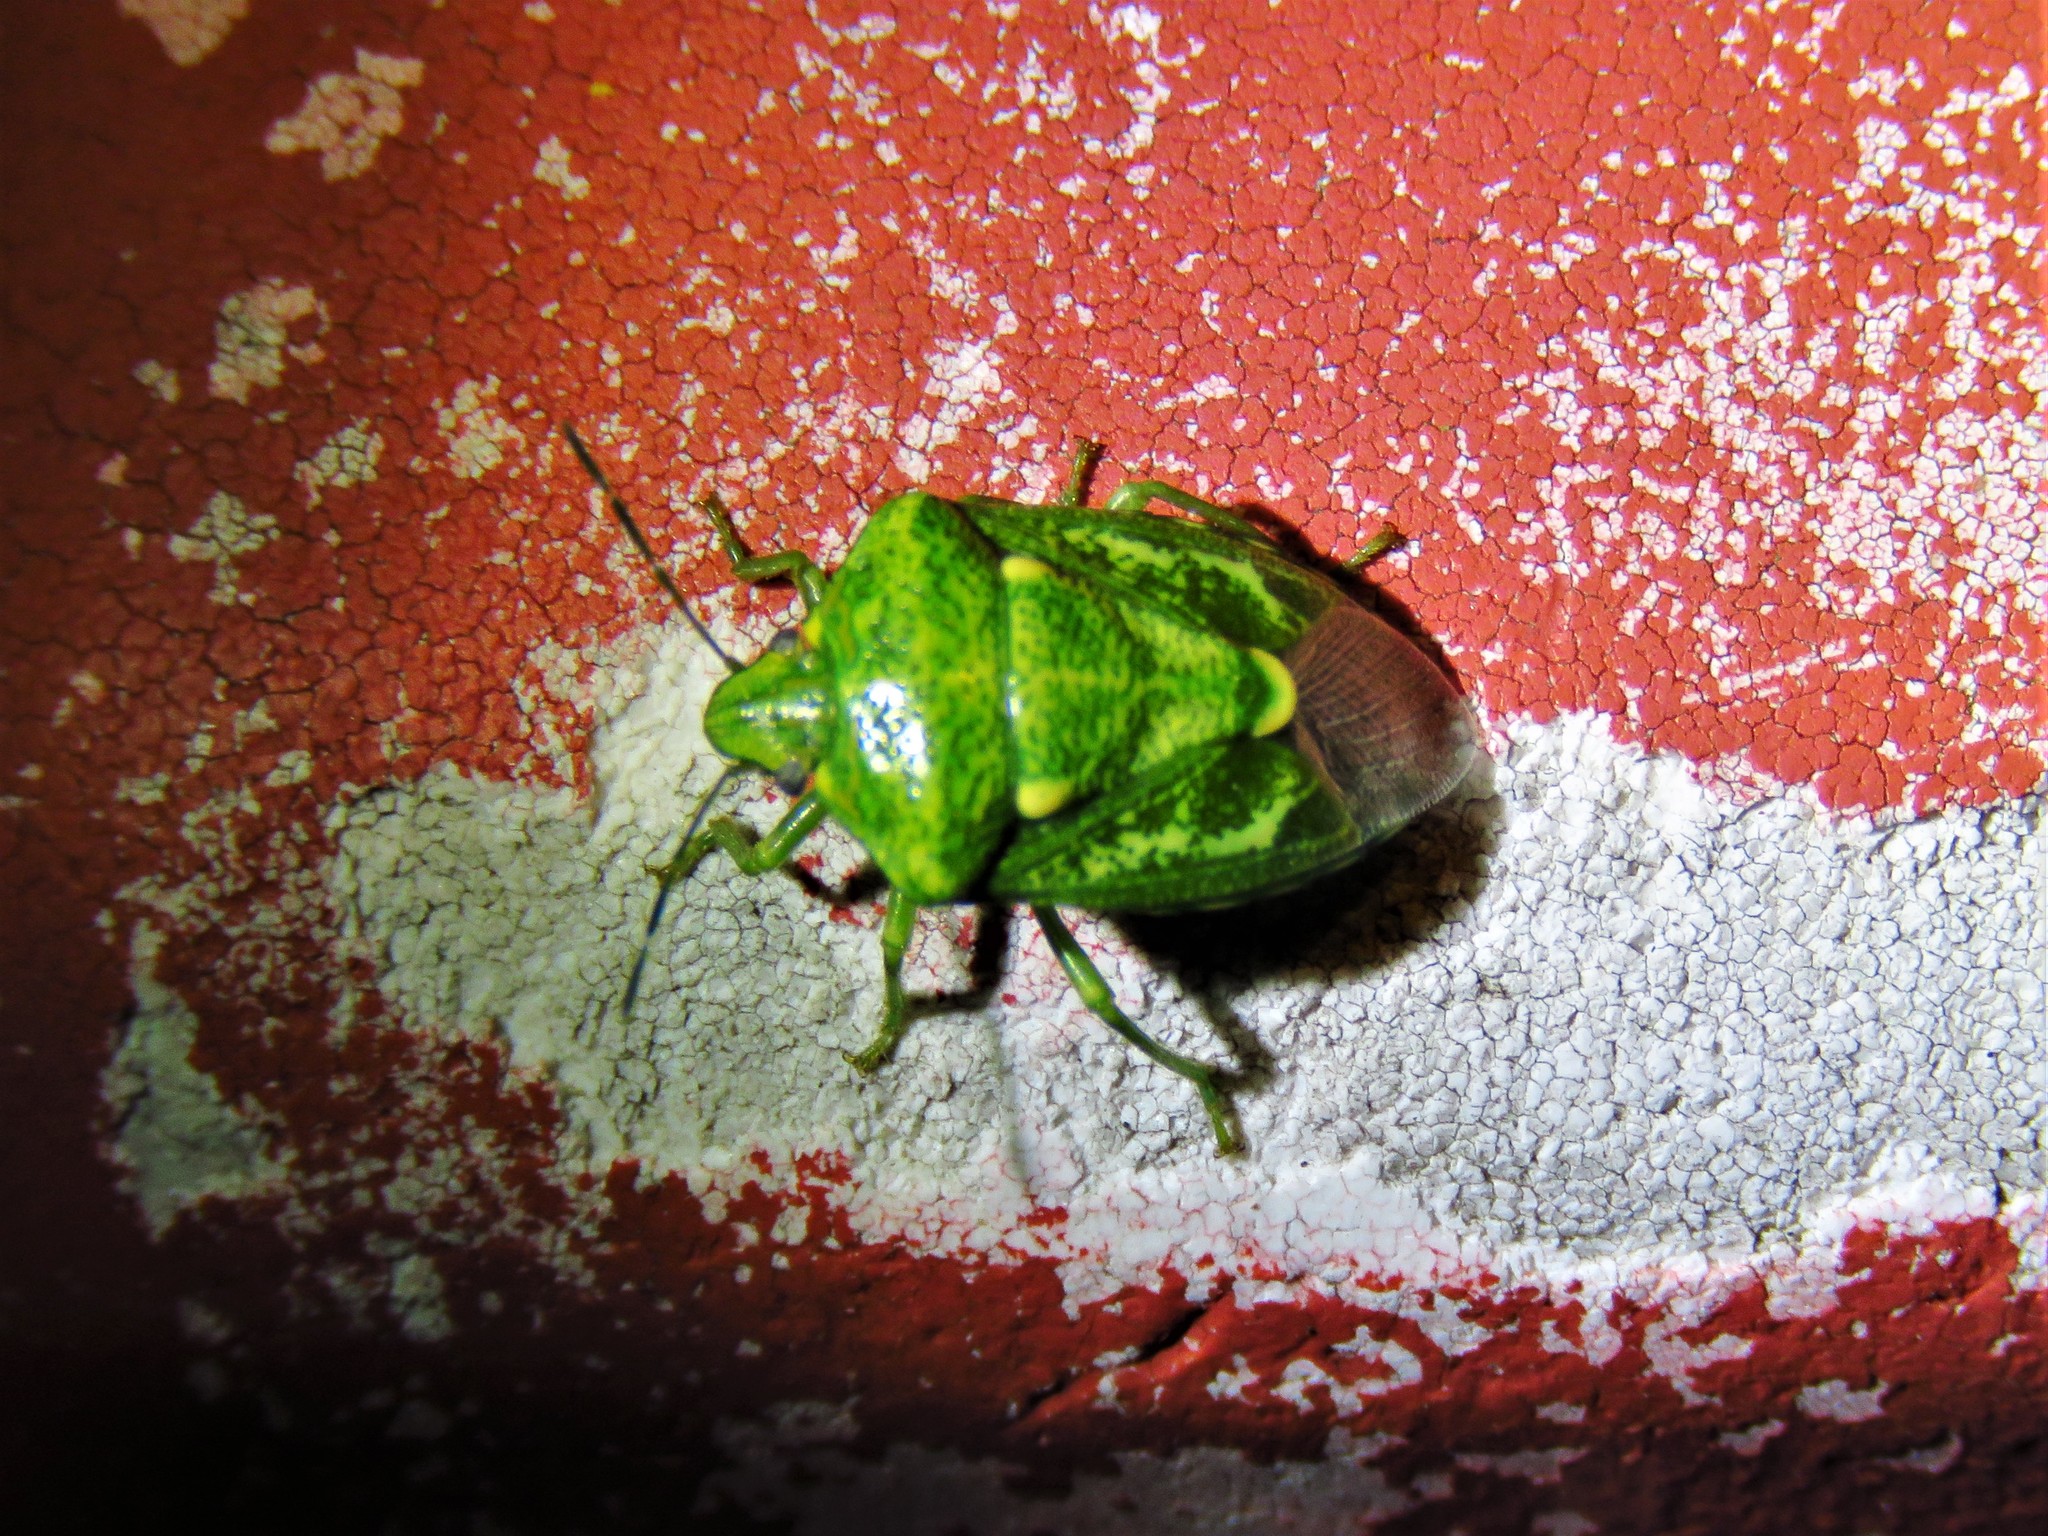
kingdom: Animalia
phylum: Arthropoda
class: Insecta
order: Hemiptera
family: Pentatomidae
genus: Banasa
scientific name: Banasa euchlora
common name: Cedar berry bug
